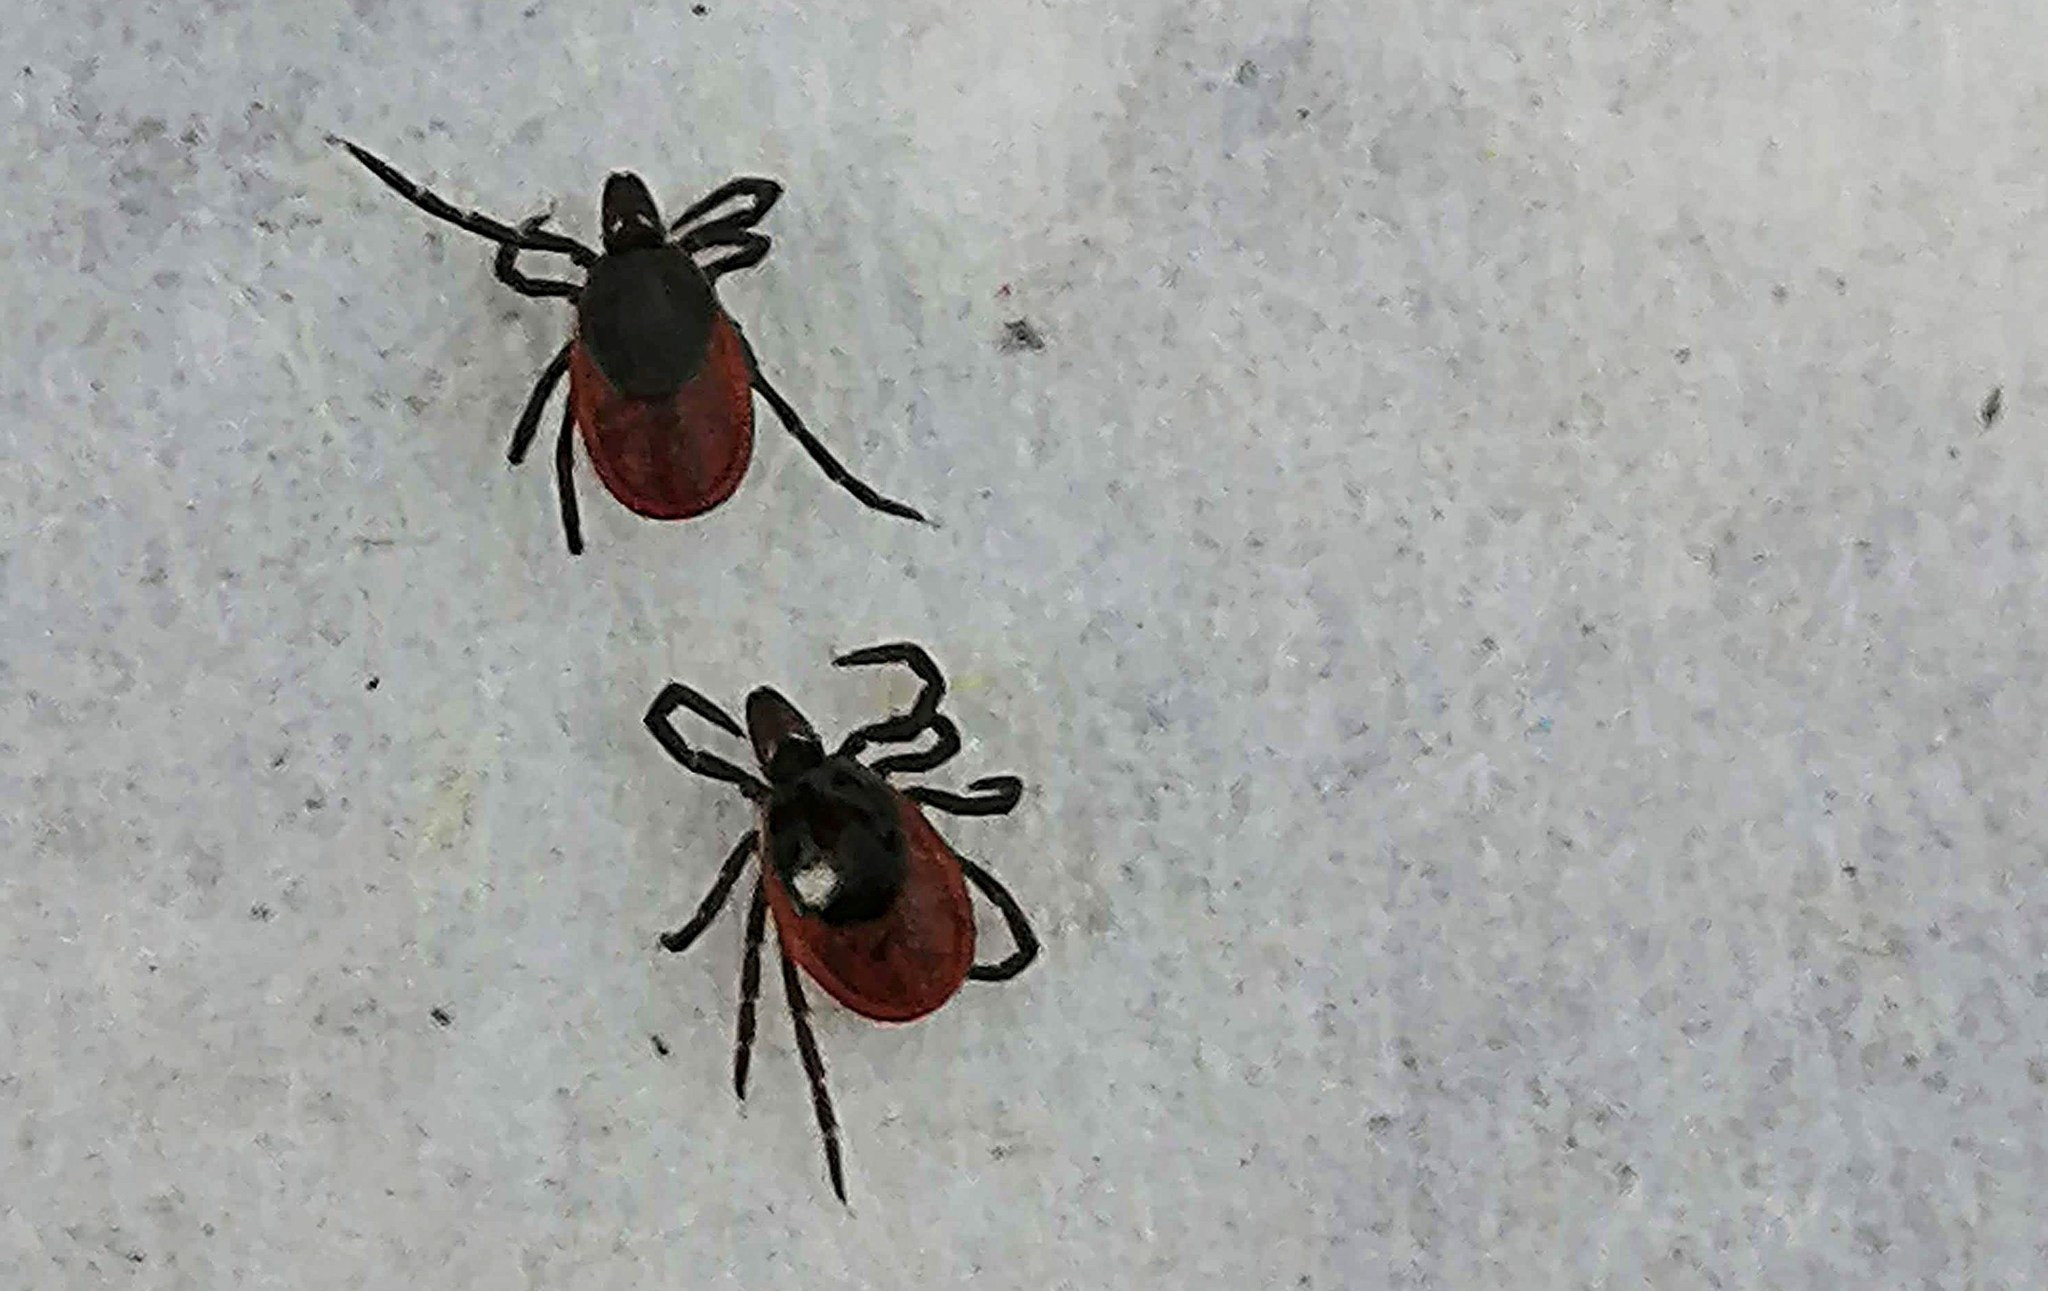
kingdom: Animalia
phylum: Arthropoda
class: Arachnida
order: Ixodida
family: Ixodidae
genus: Ixodes
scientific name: Ixodes persulcatus
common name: Taiga tick
